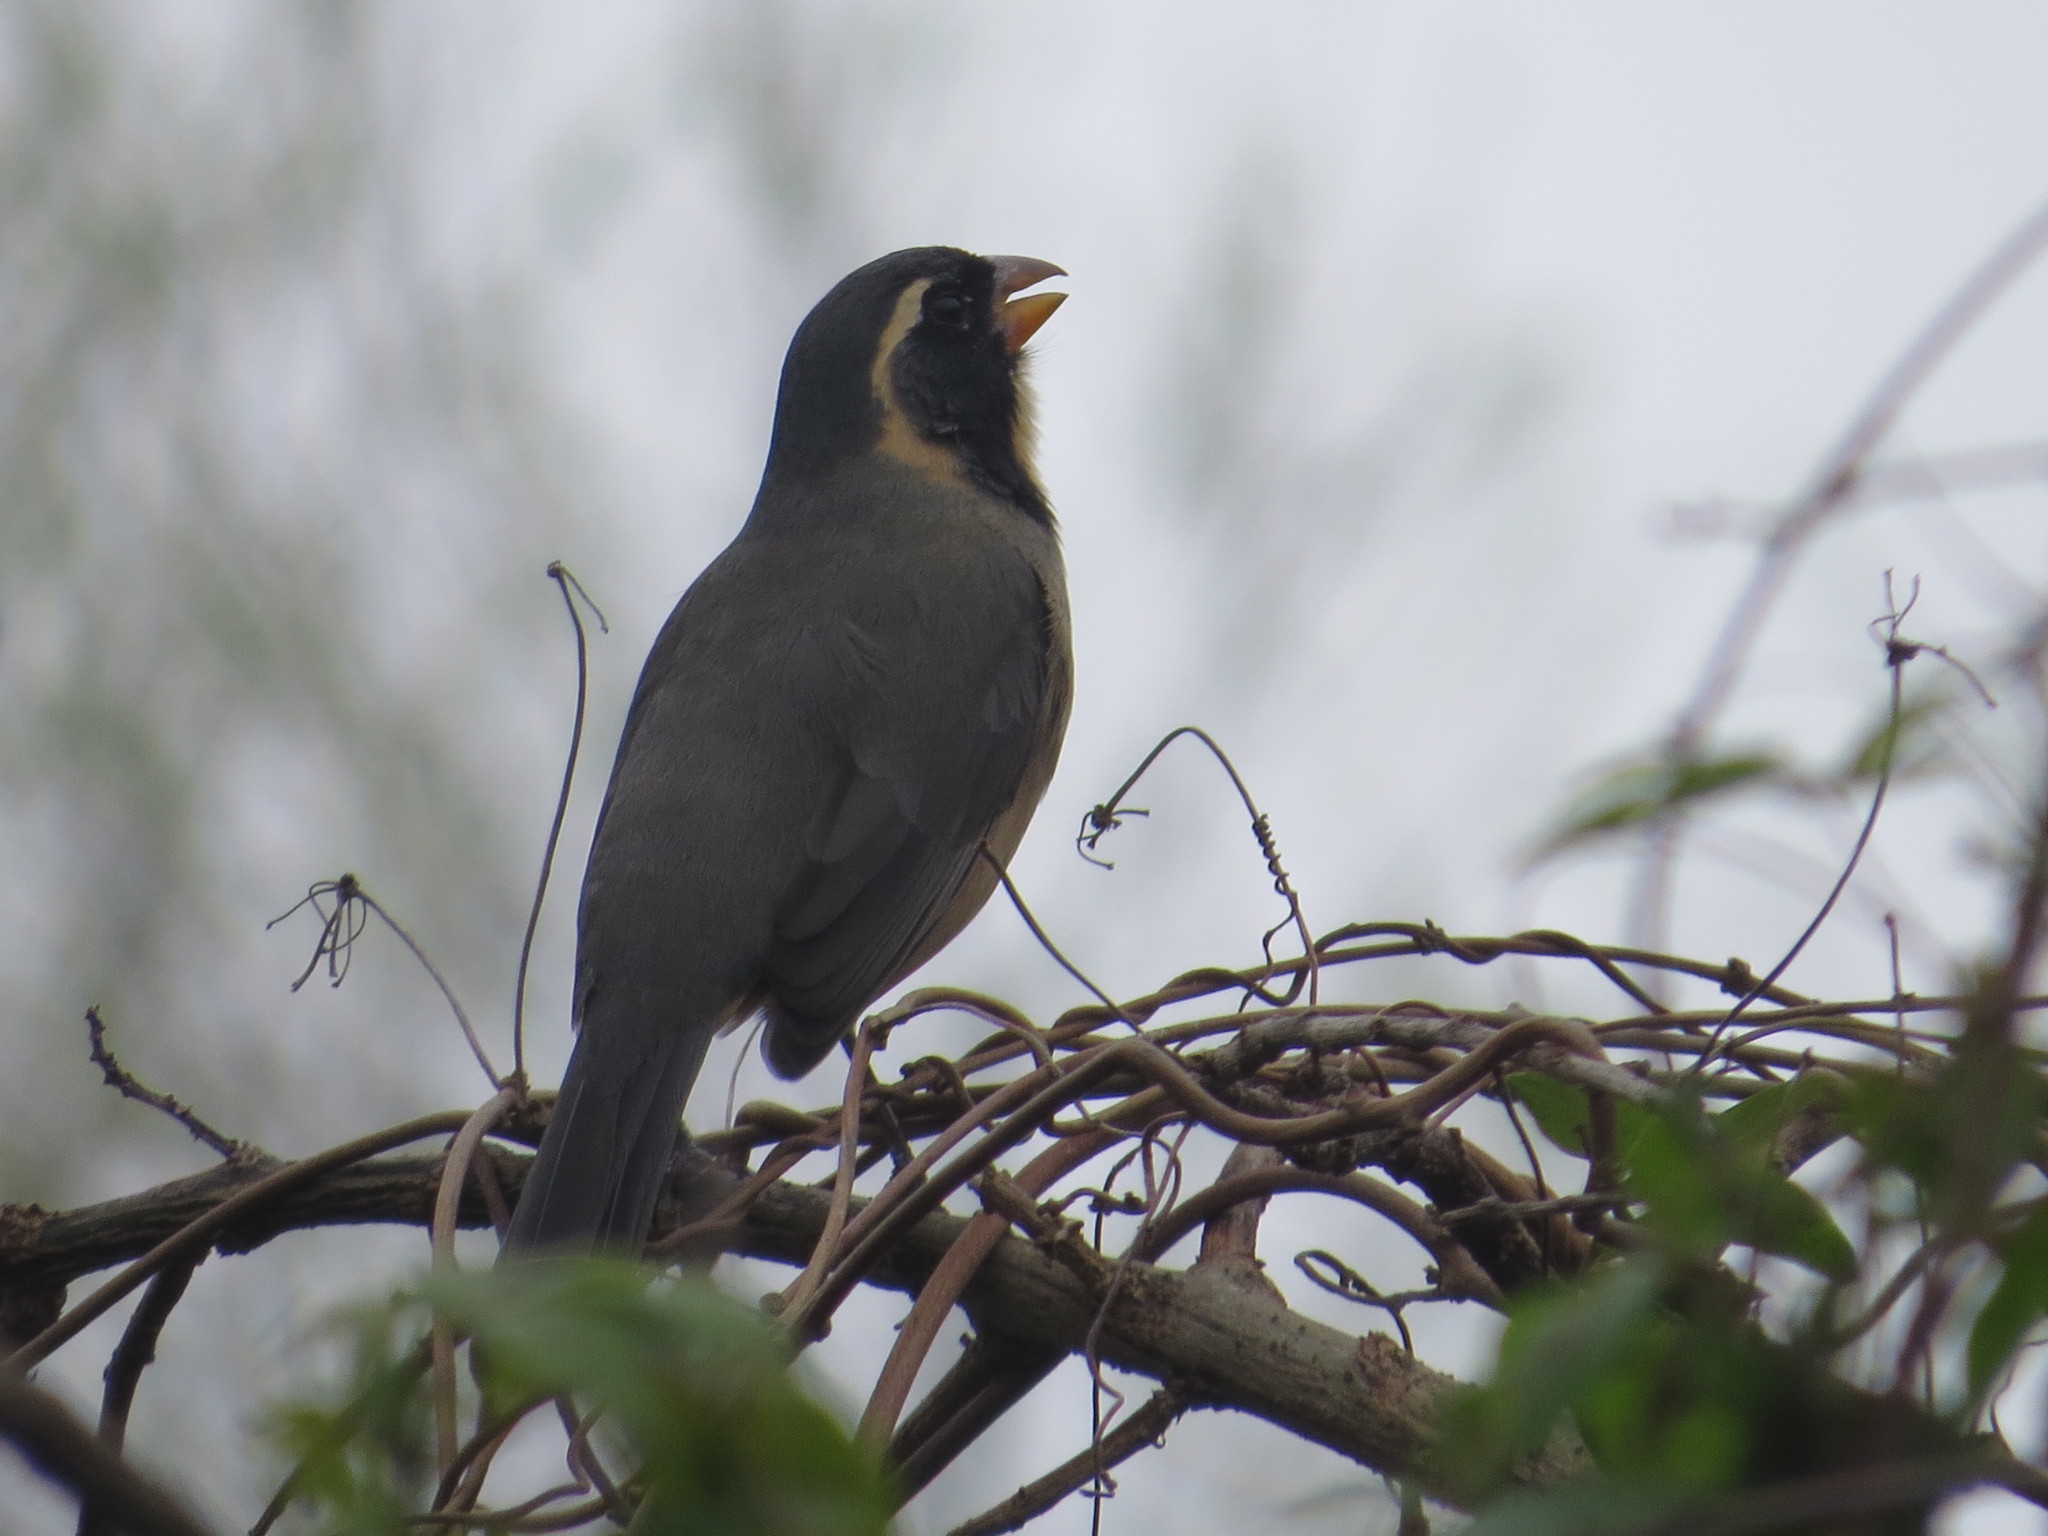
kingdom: Animalia
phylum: Chordata
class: Aves
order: Passeriformes
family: Thraupidae
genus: Saltator
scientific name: Saltator aurantiirostris
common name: Golden-billed saltator
